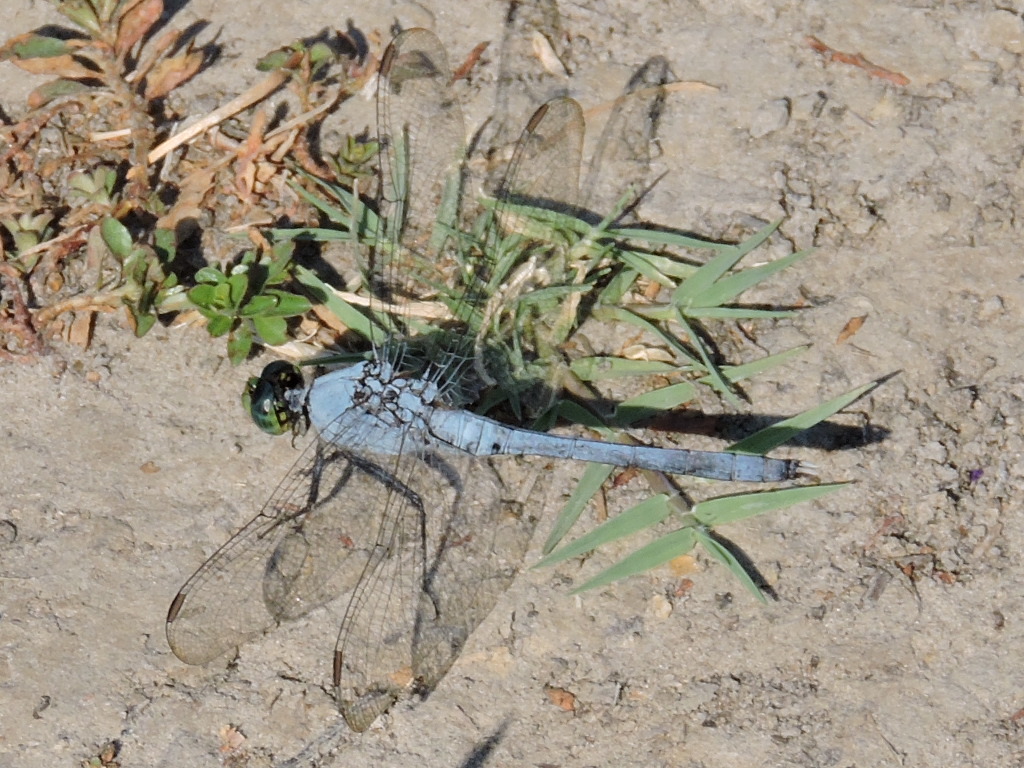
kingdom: Animalia
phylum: Arthropoda
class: Insecta
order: Odonata
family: Libellulidae
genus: Erythemis
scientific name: Erythemis simplicicollis
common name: Eastern pondhawk
